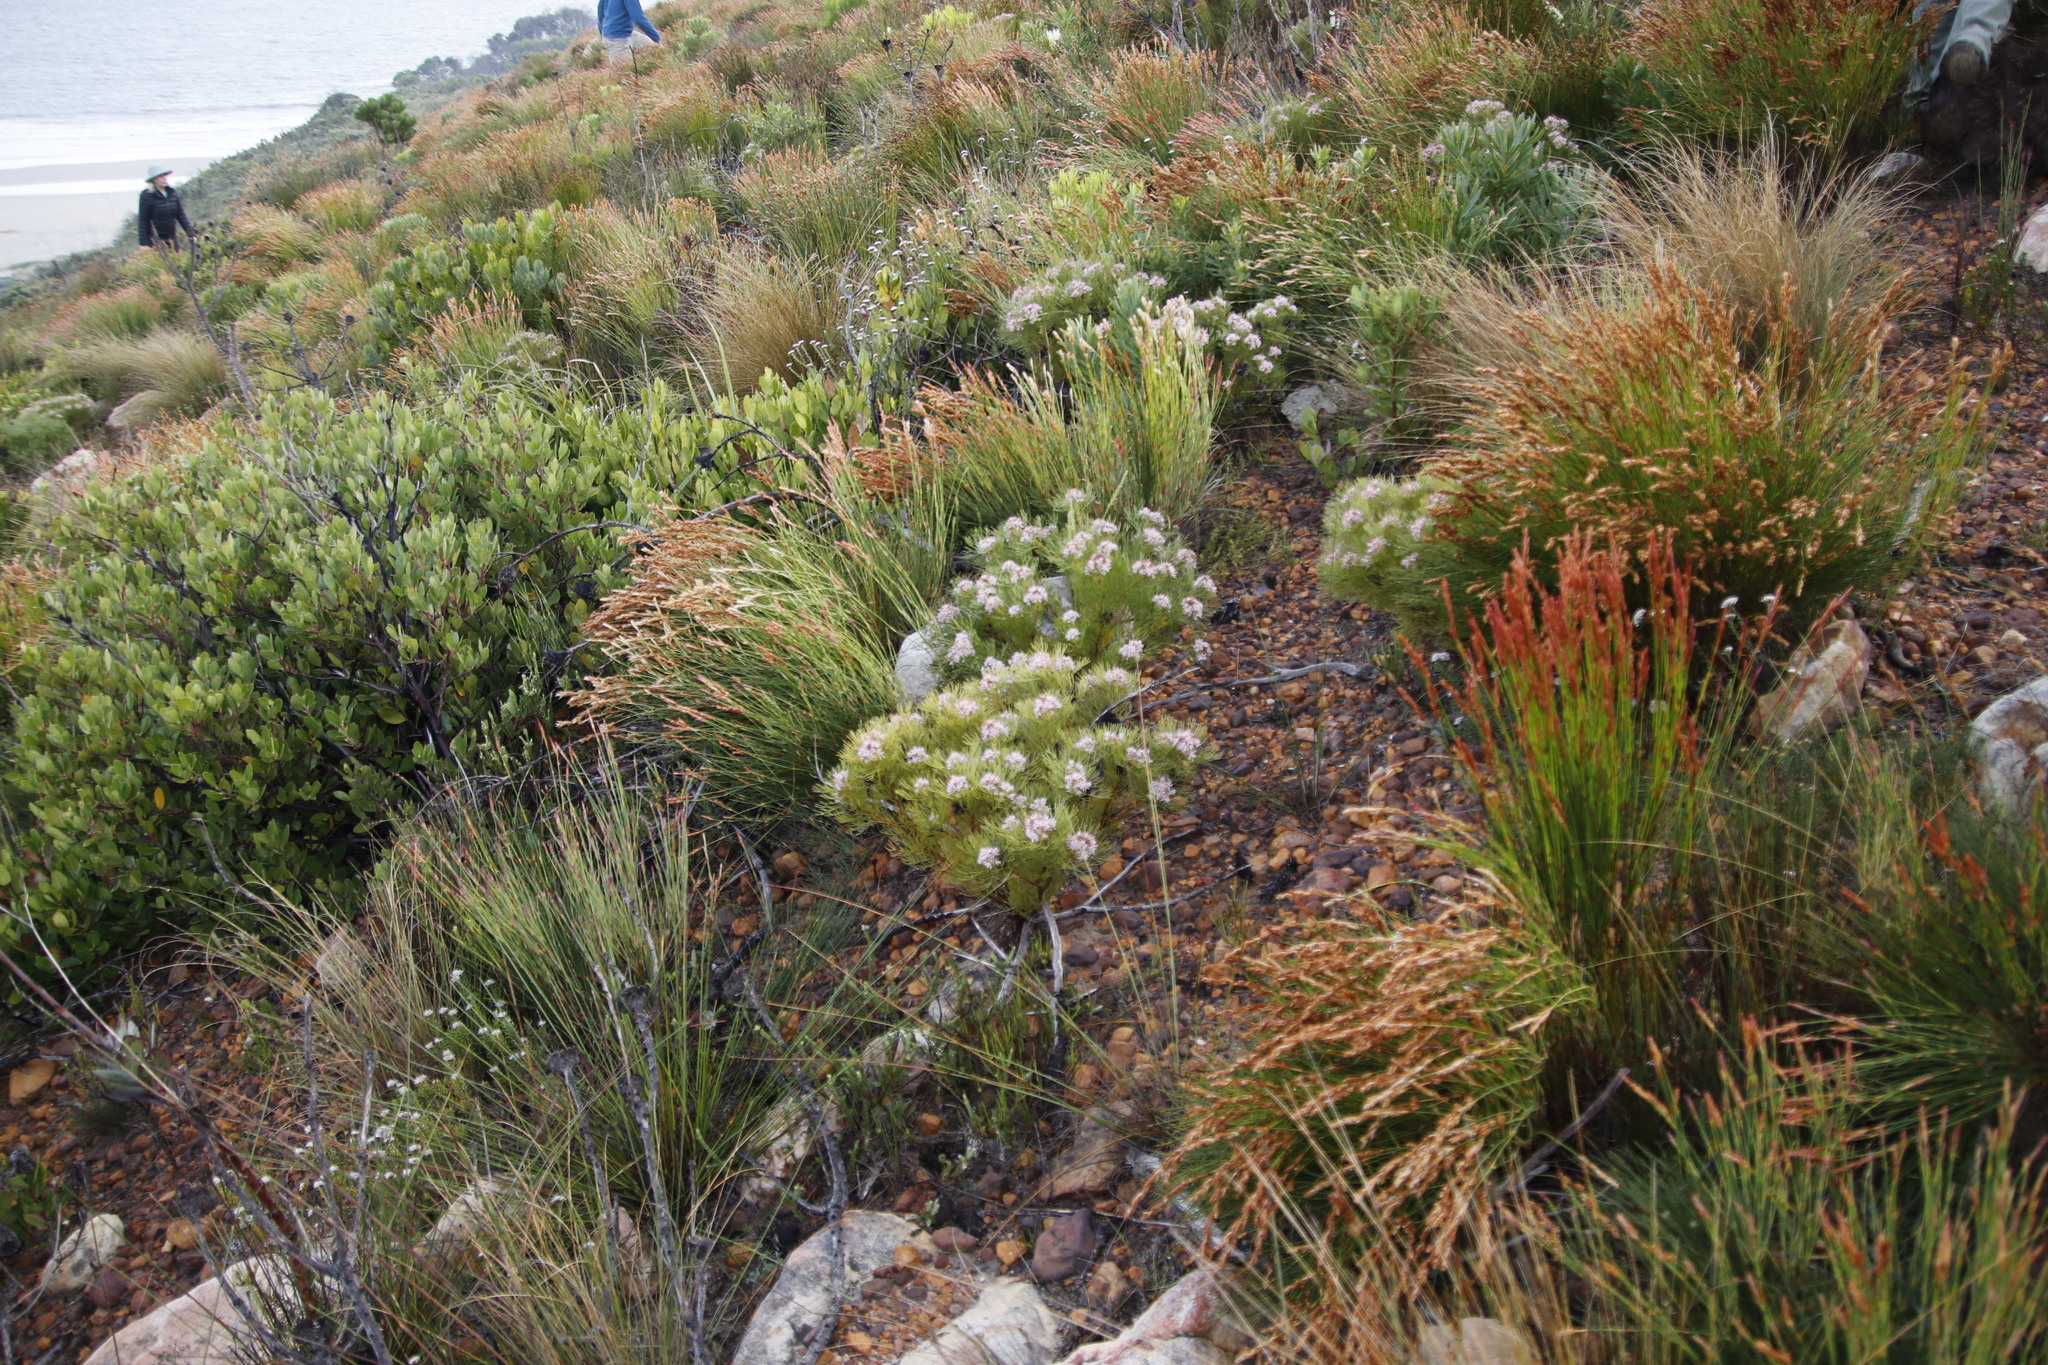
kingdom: Plantae
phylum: Tracheophyta
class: Magnoliopsida
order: Proteales
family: Proteaceae
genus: Serruria
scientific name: Serruria ascendens
